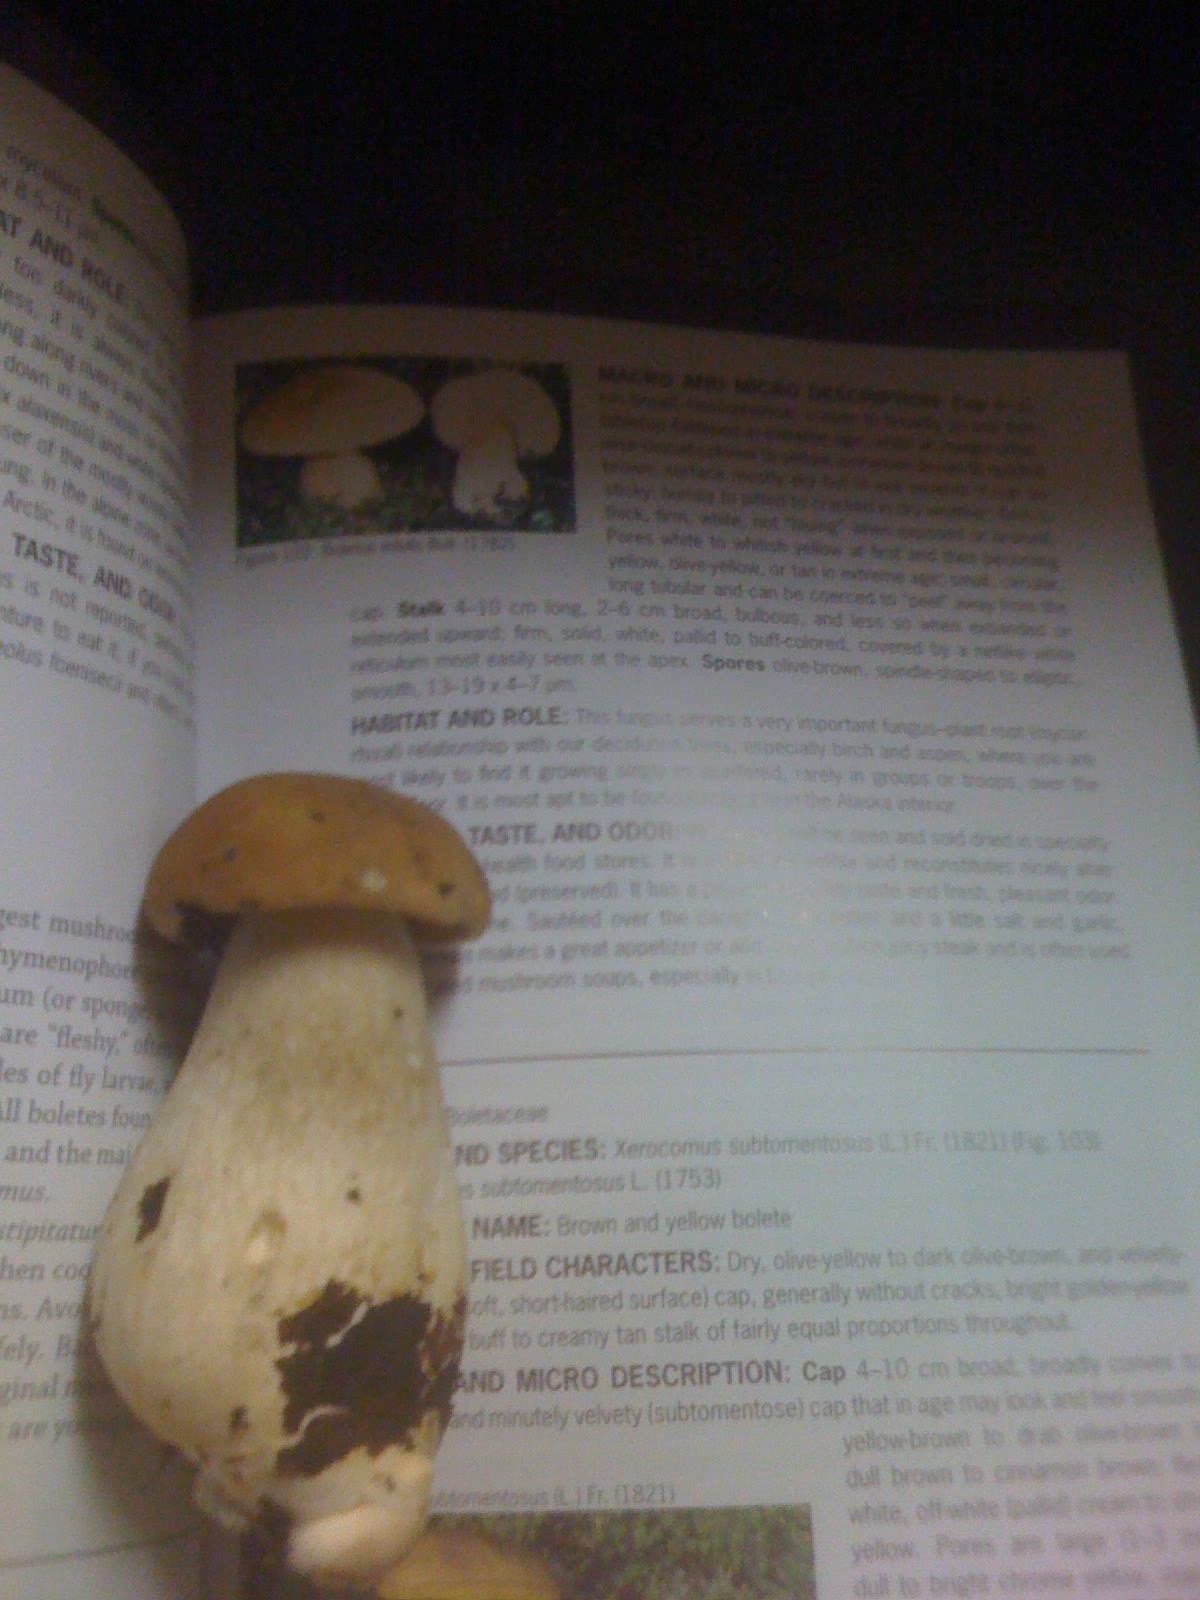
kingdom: Fungi
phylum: Basidiomycota
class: Agaricomycetes
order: Boletales
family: Boletaceae
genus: Boletus
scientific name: Boletus edulis
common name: Cep
